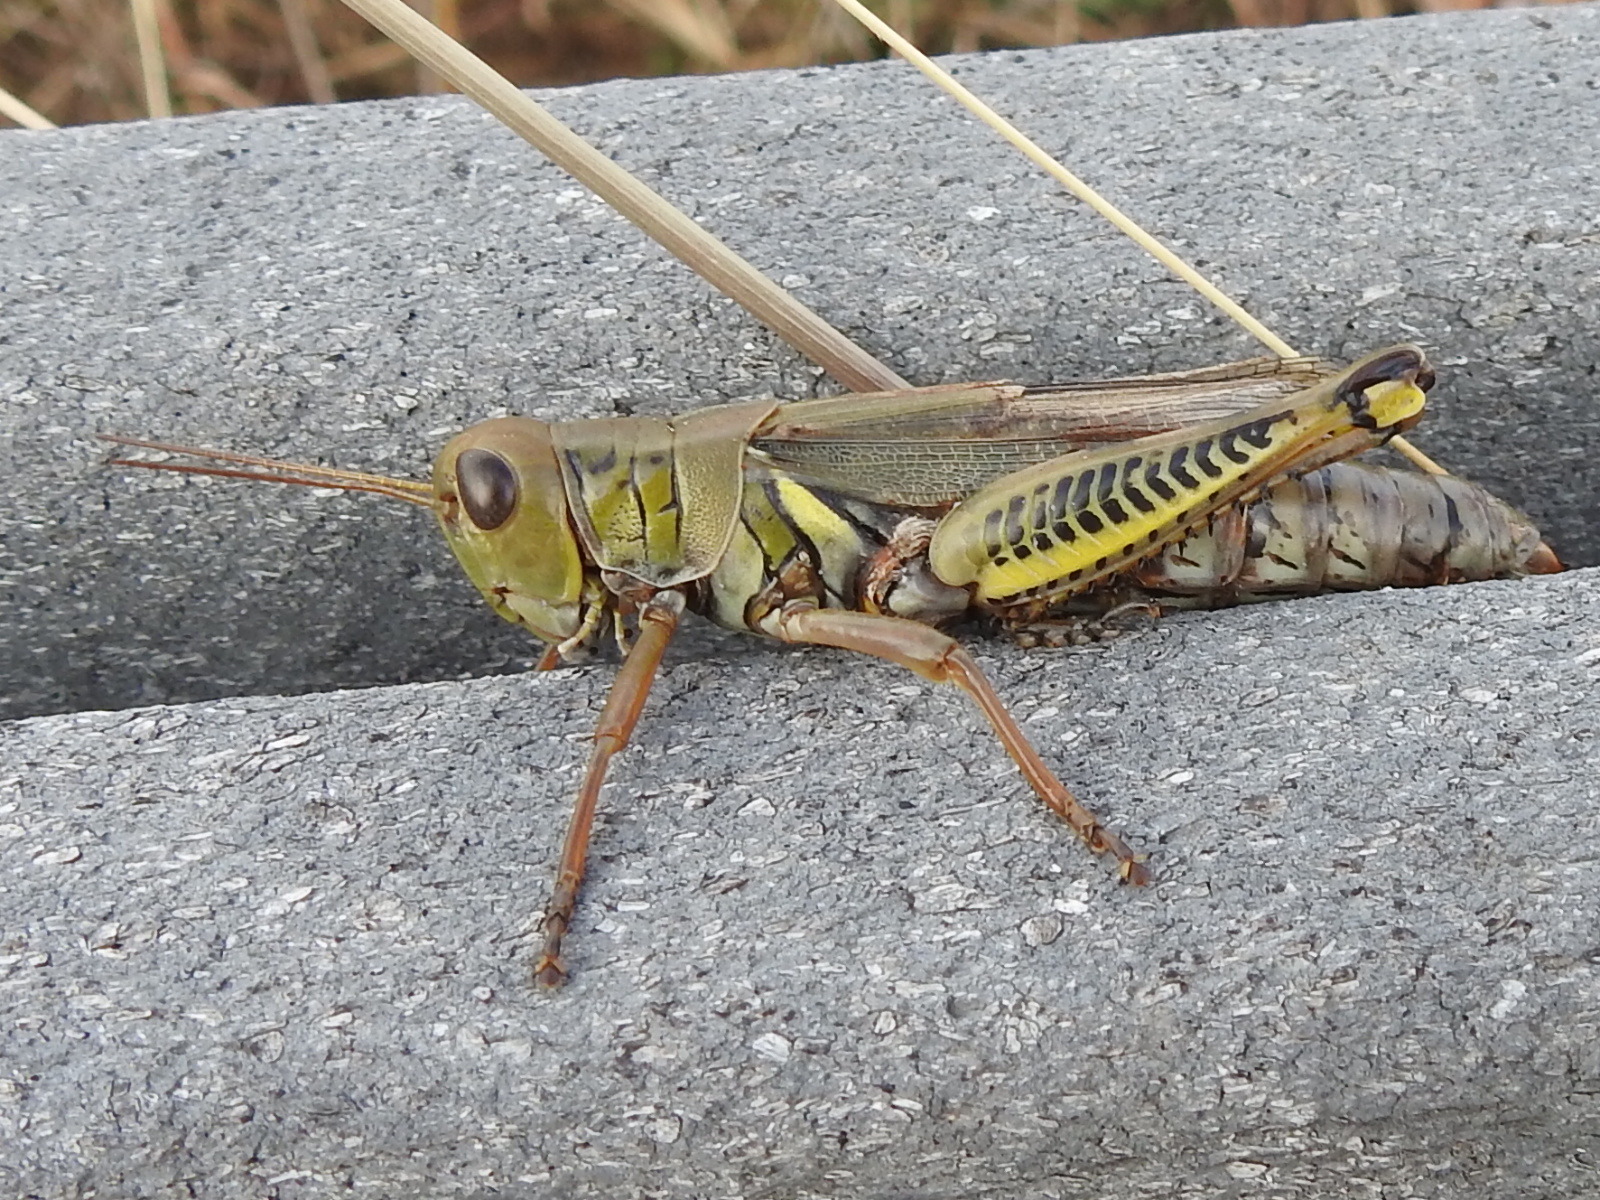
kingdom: Animalia
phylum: Arthropoda
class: Insecta
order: Orthoptera
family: Acrididae
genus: Melanoplus
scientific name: Melanoplus differentialis
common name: Differential grasshopper
